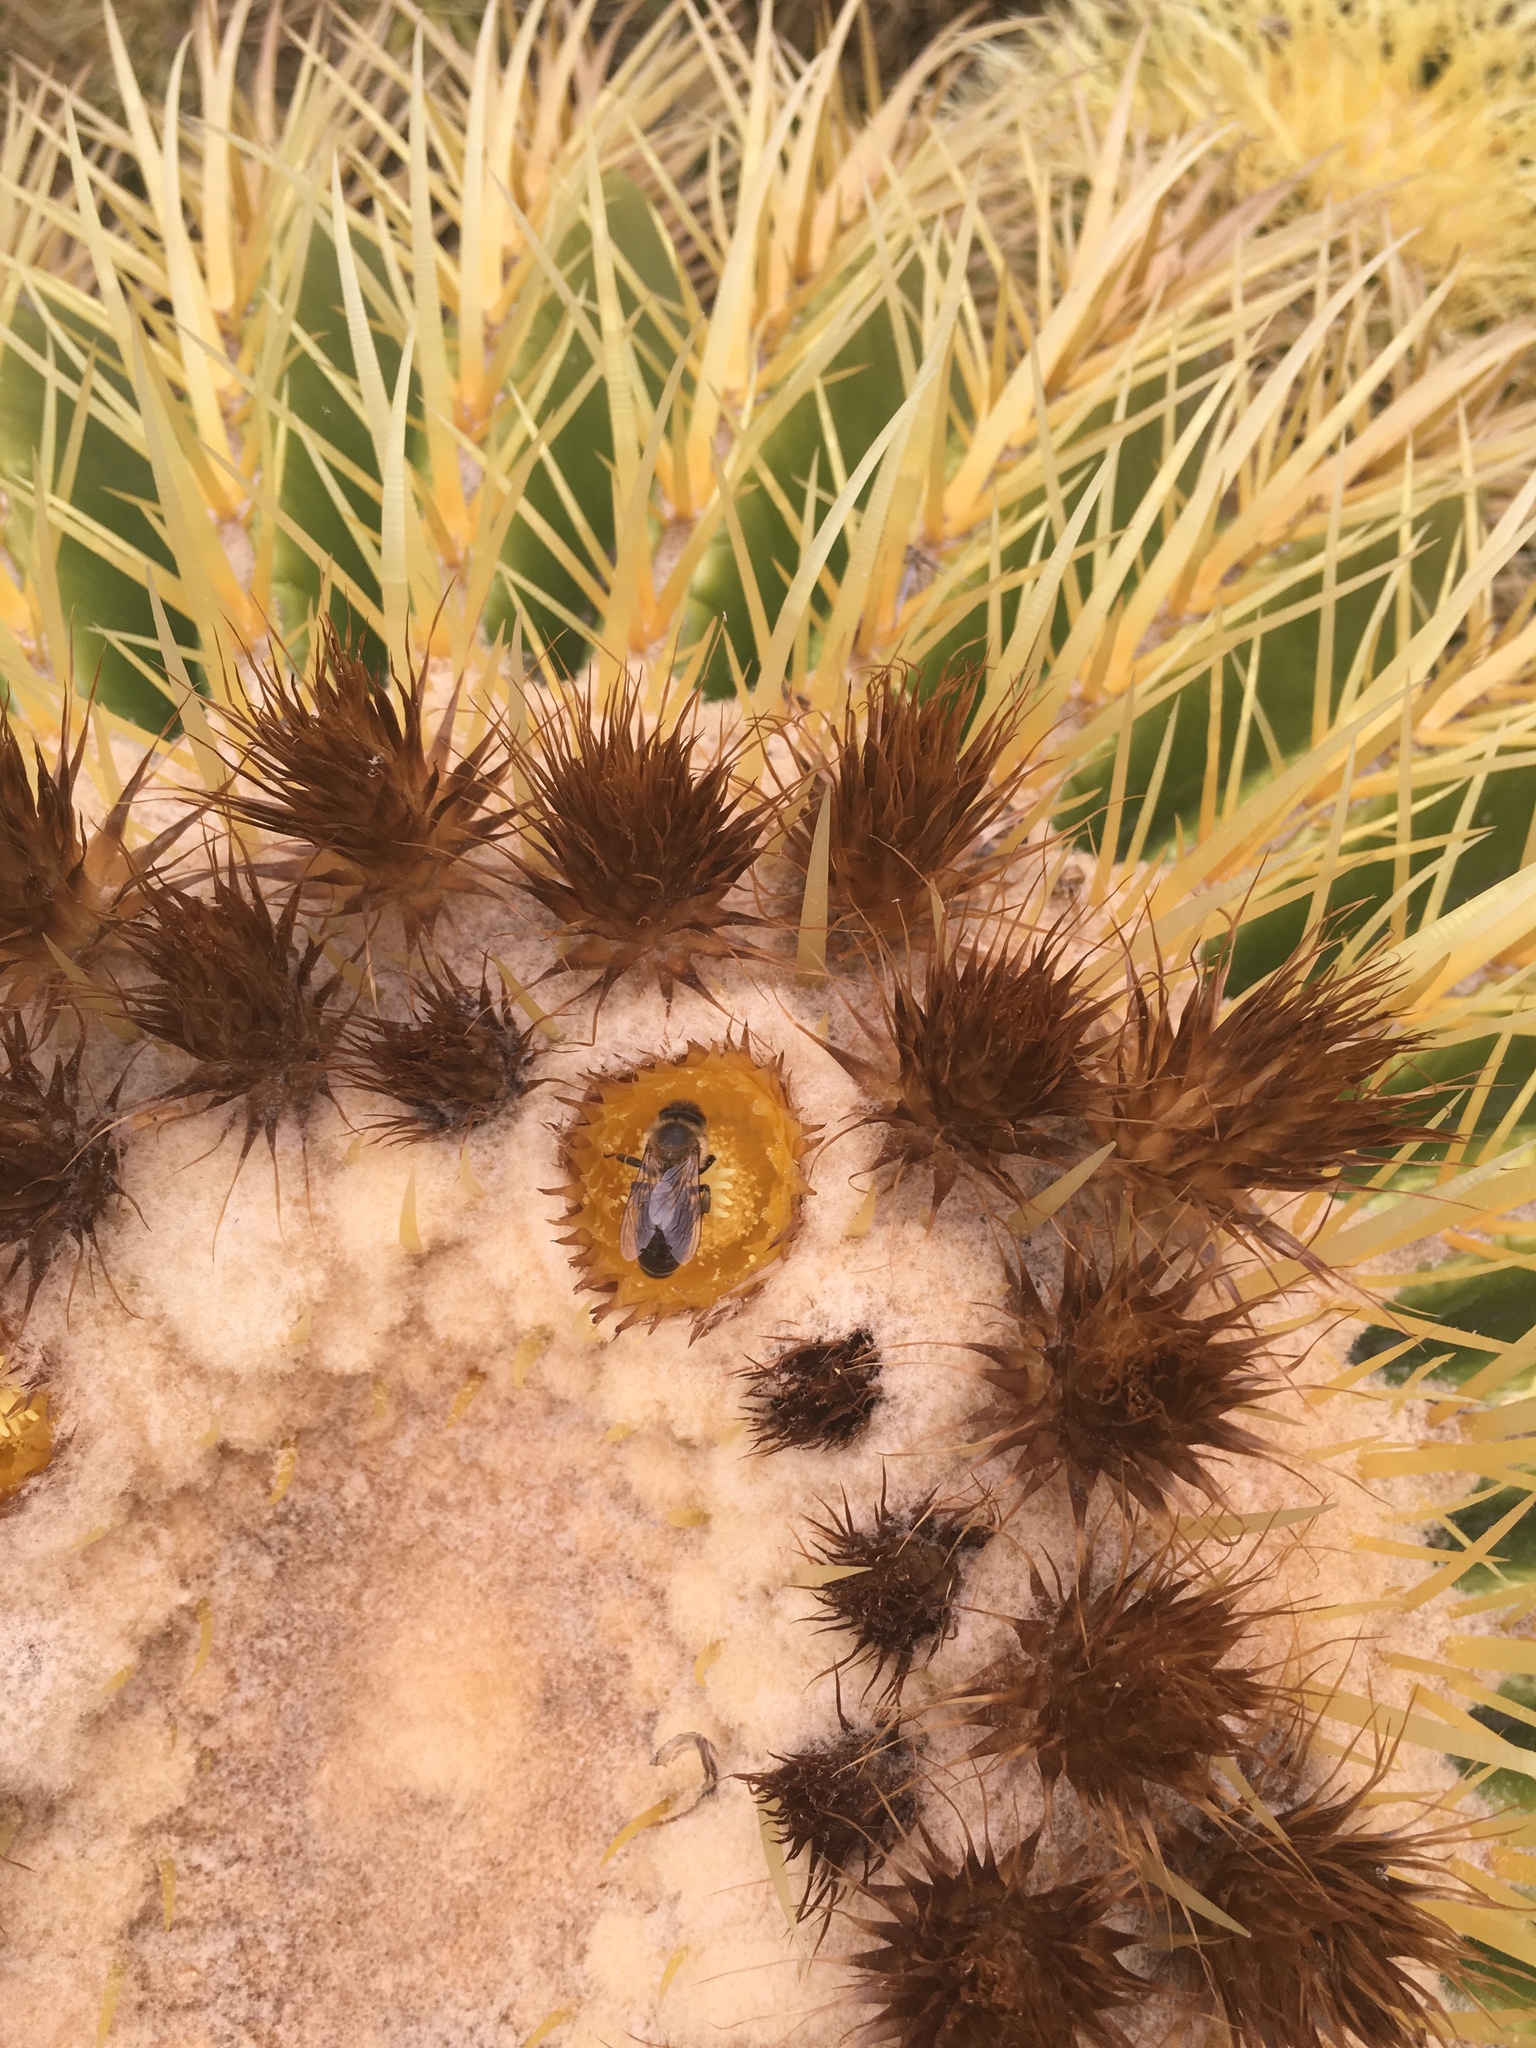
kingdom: Animalia
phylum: Arthropoda
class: Insecta
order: Hymenoptera
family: Apidae
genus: Apis
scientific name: Apis mellifera
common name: Honey bee
